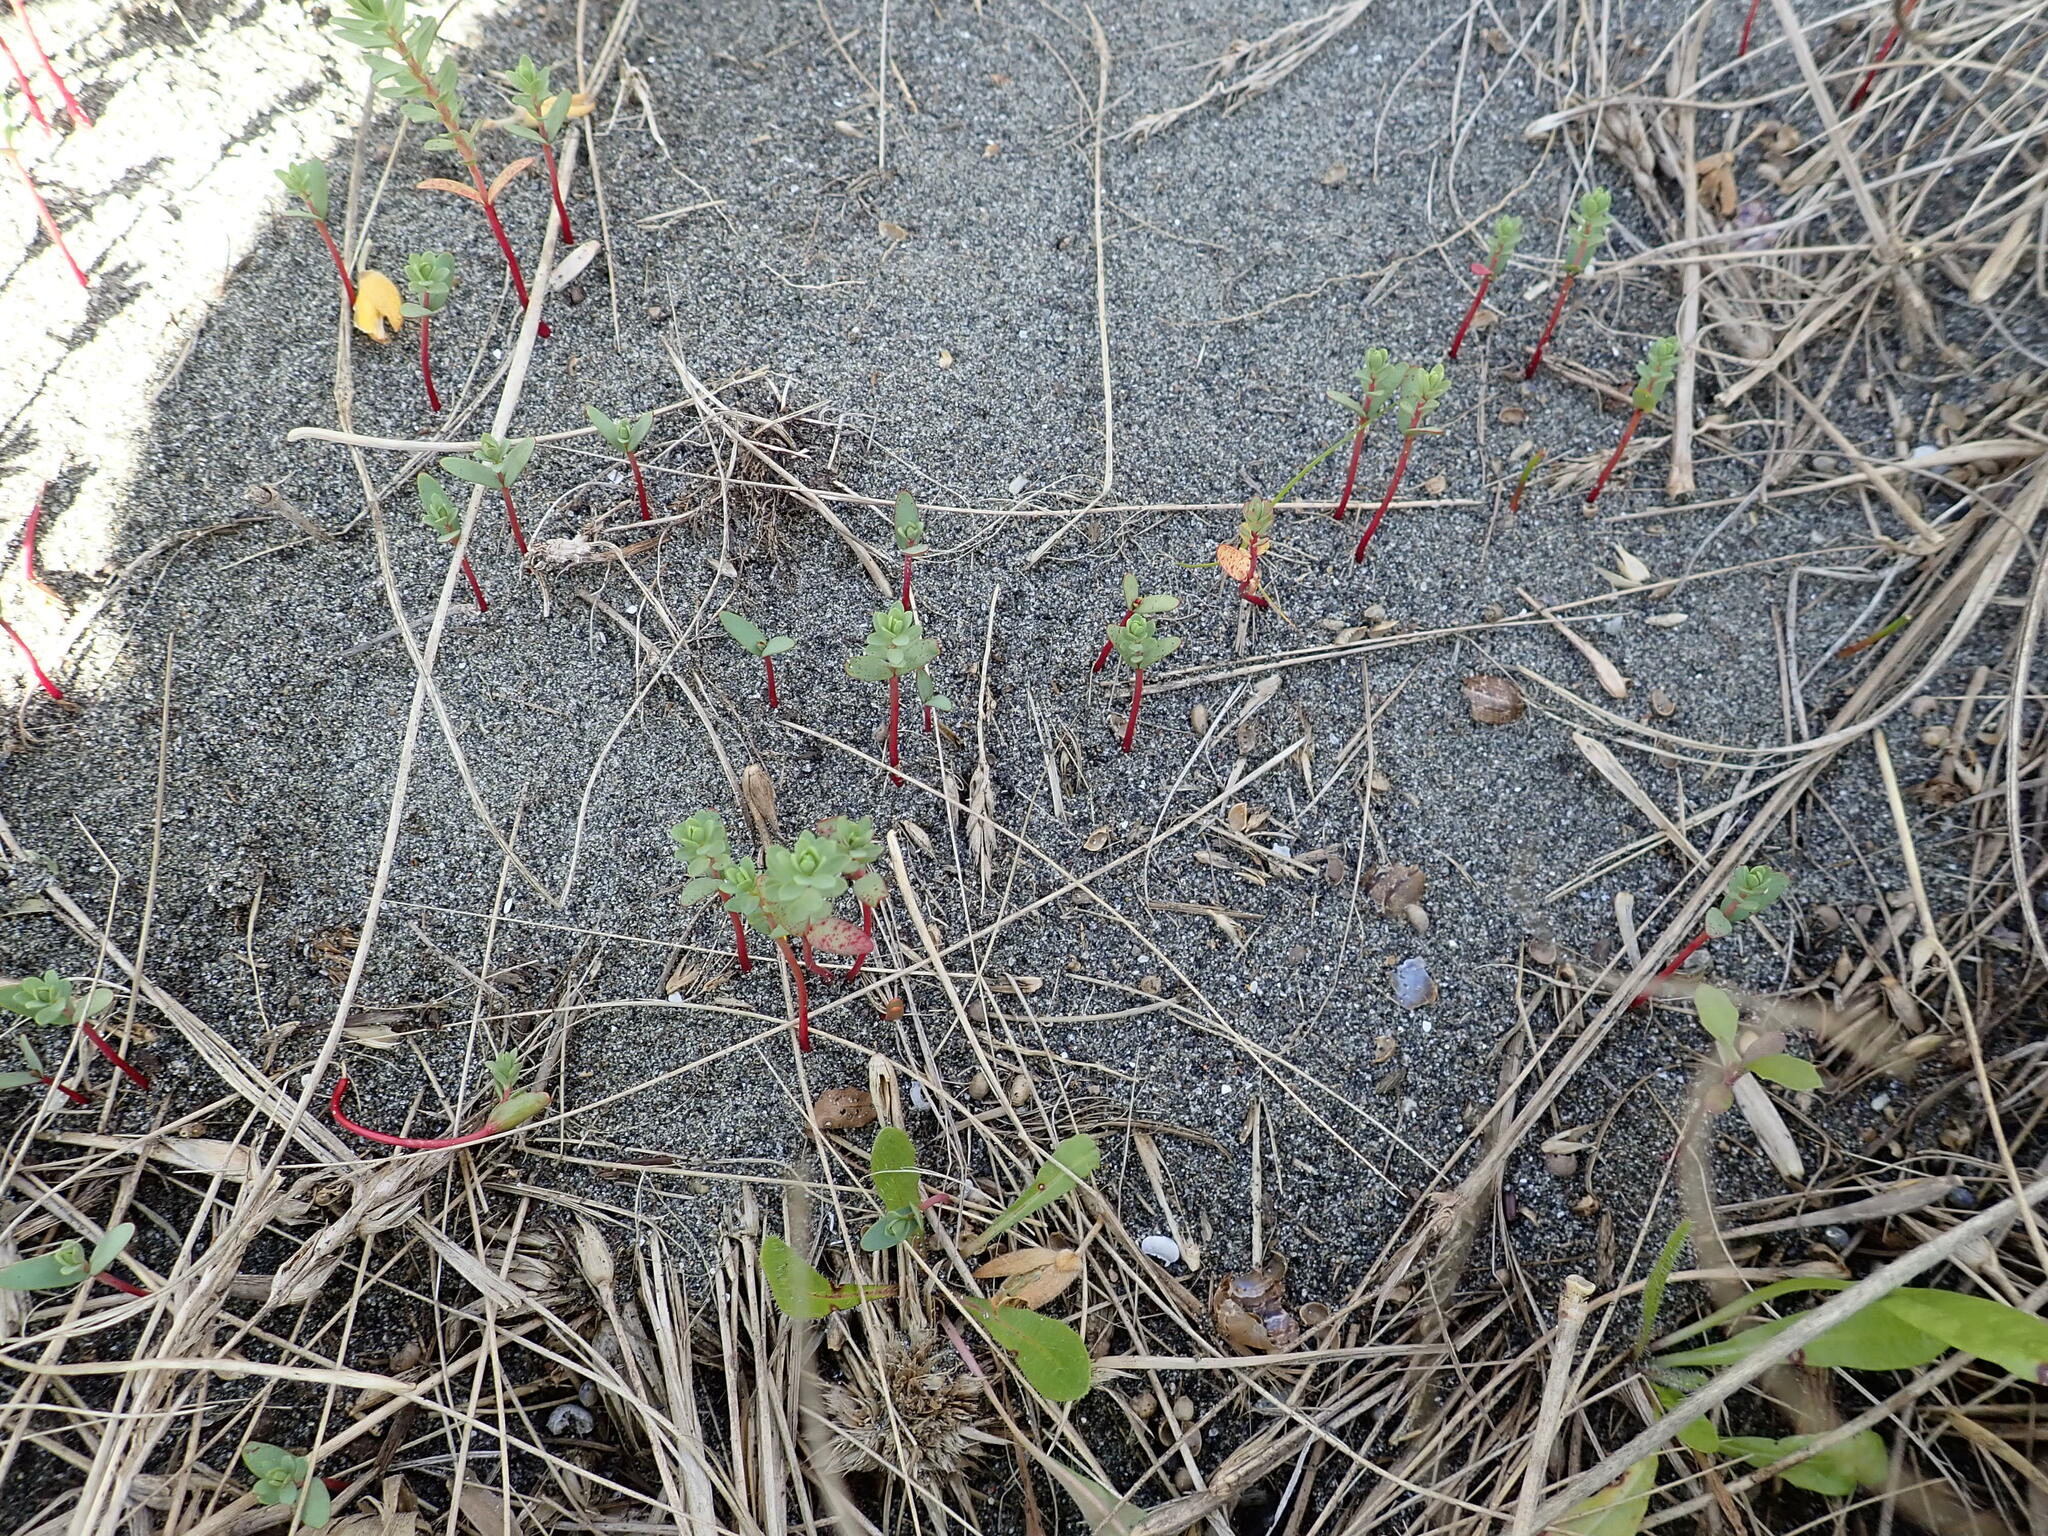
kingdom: Plantae
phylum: Tracheophyta
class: Magnoliopsida
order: Malpighiales
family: Euphorbiaceae
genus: Euphorbia
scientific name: Euphorbia paralias
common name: Sea spurge
